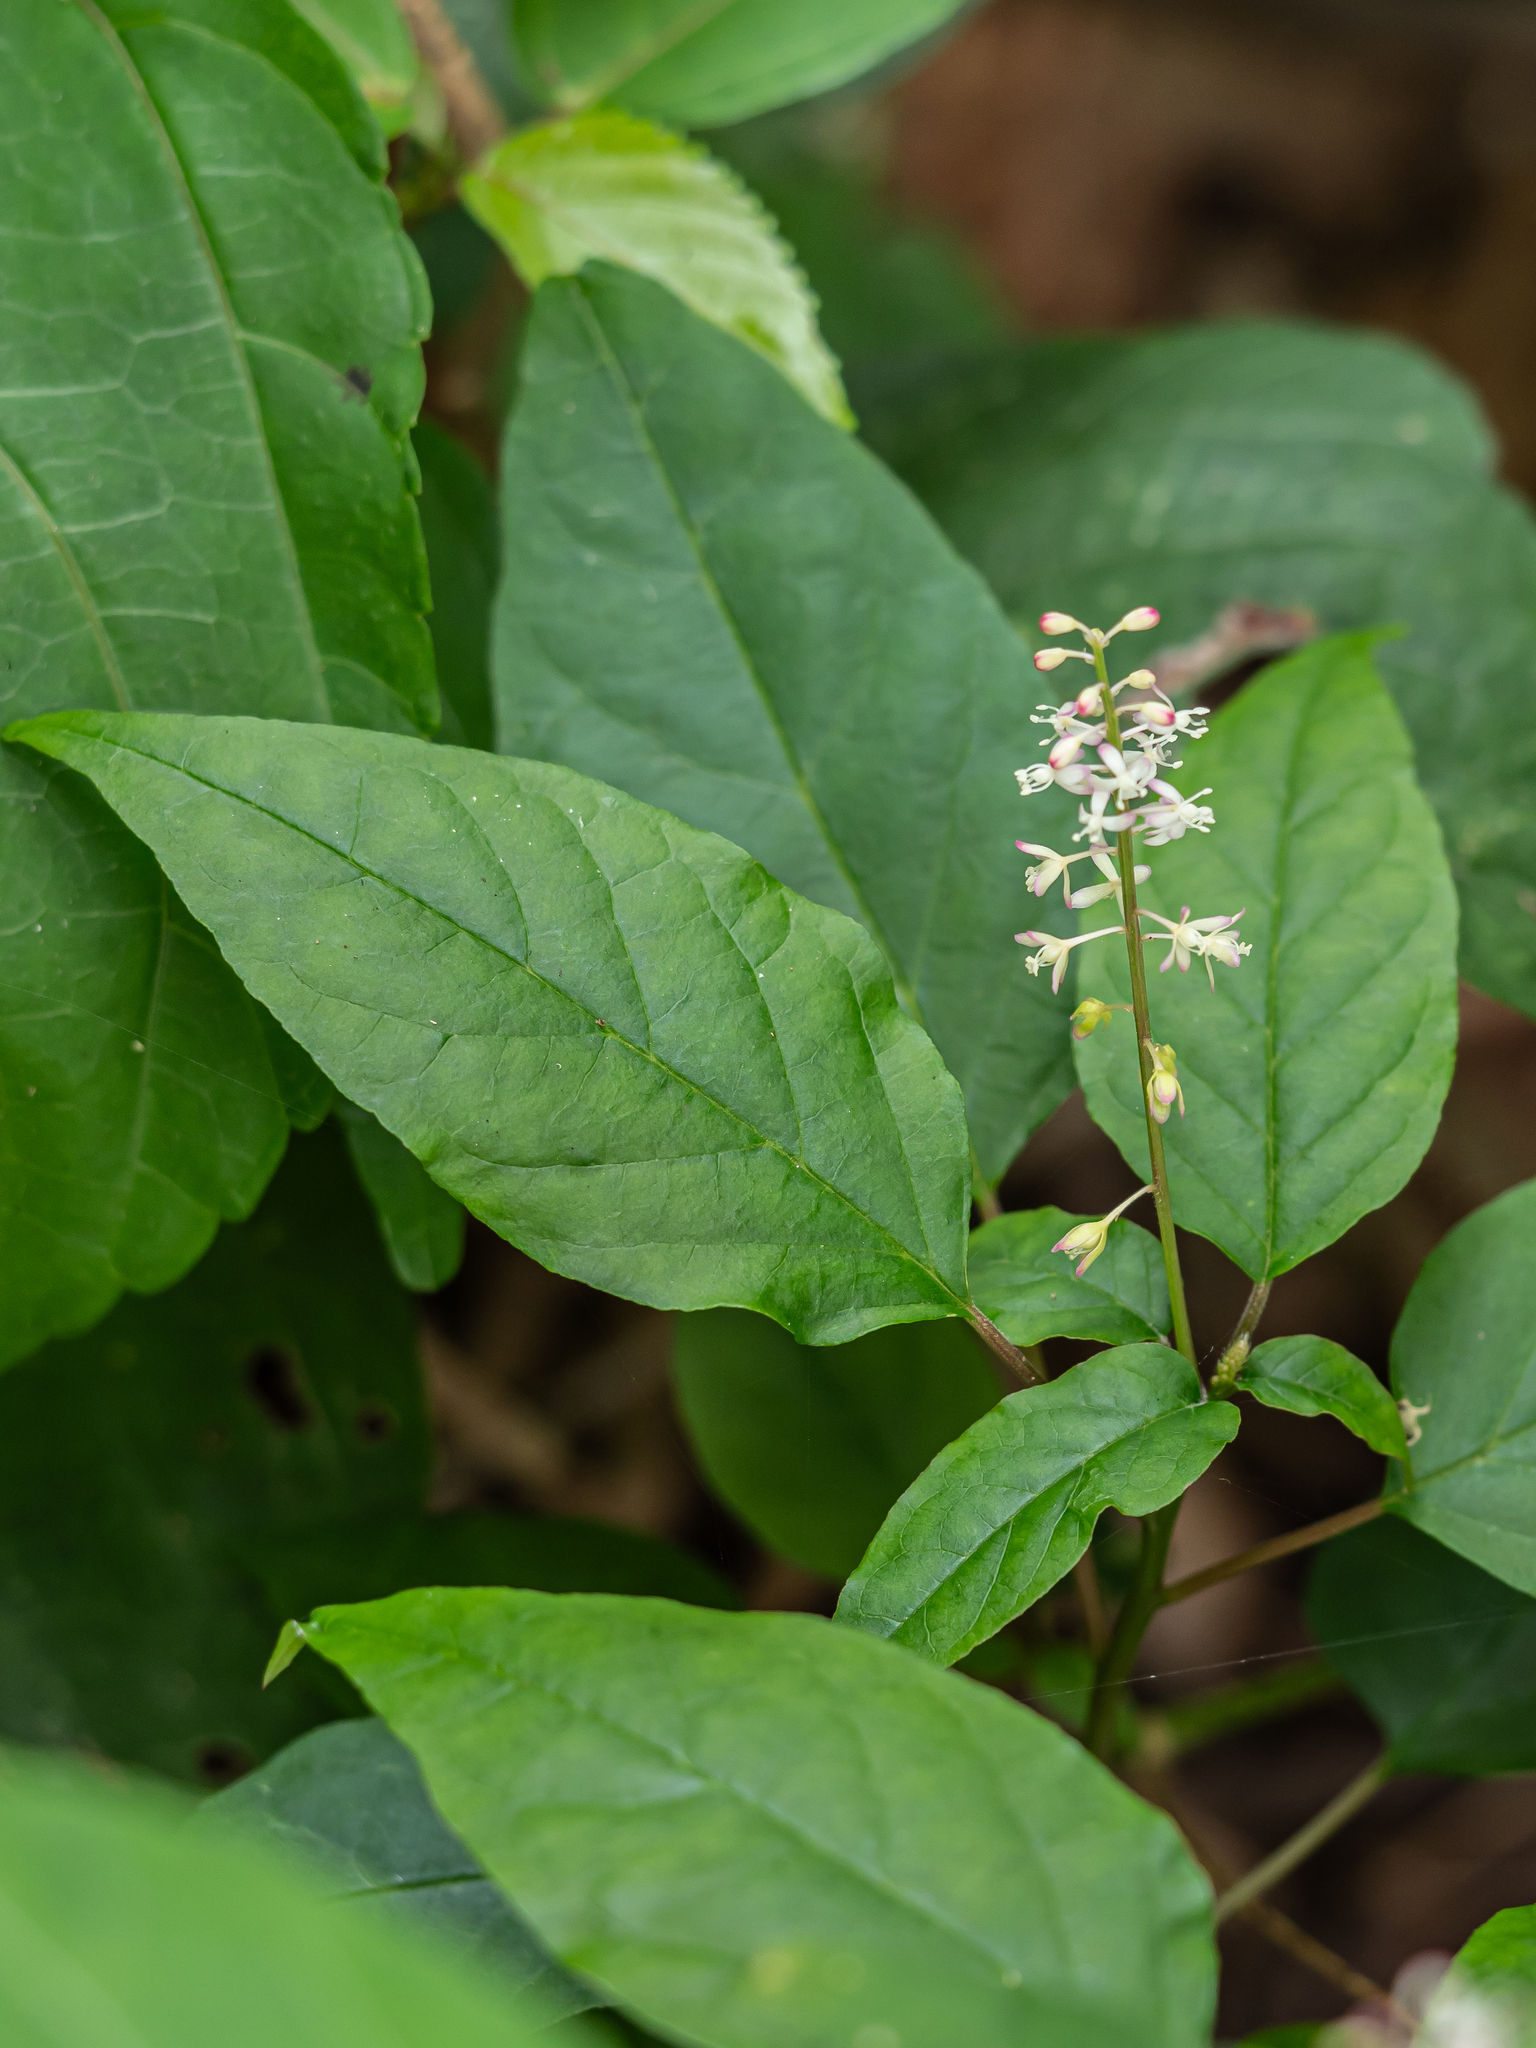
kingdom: Plantae
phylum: Tracheophyta
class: Magnoliopsida
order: Caryophyllales
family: Phytolaccaceae
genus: Rivina
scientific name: Rivina humilis
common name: Rougeplant
